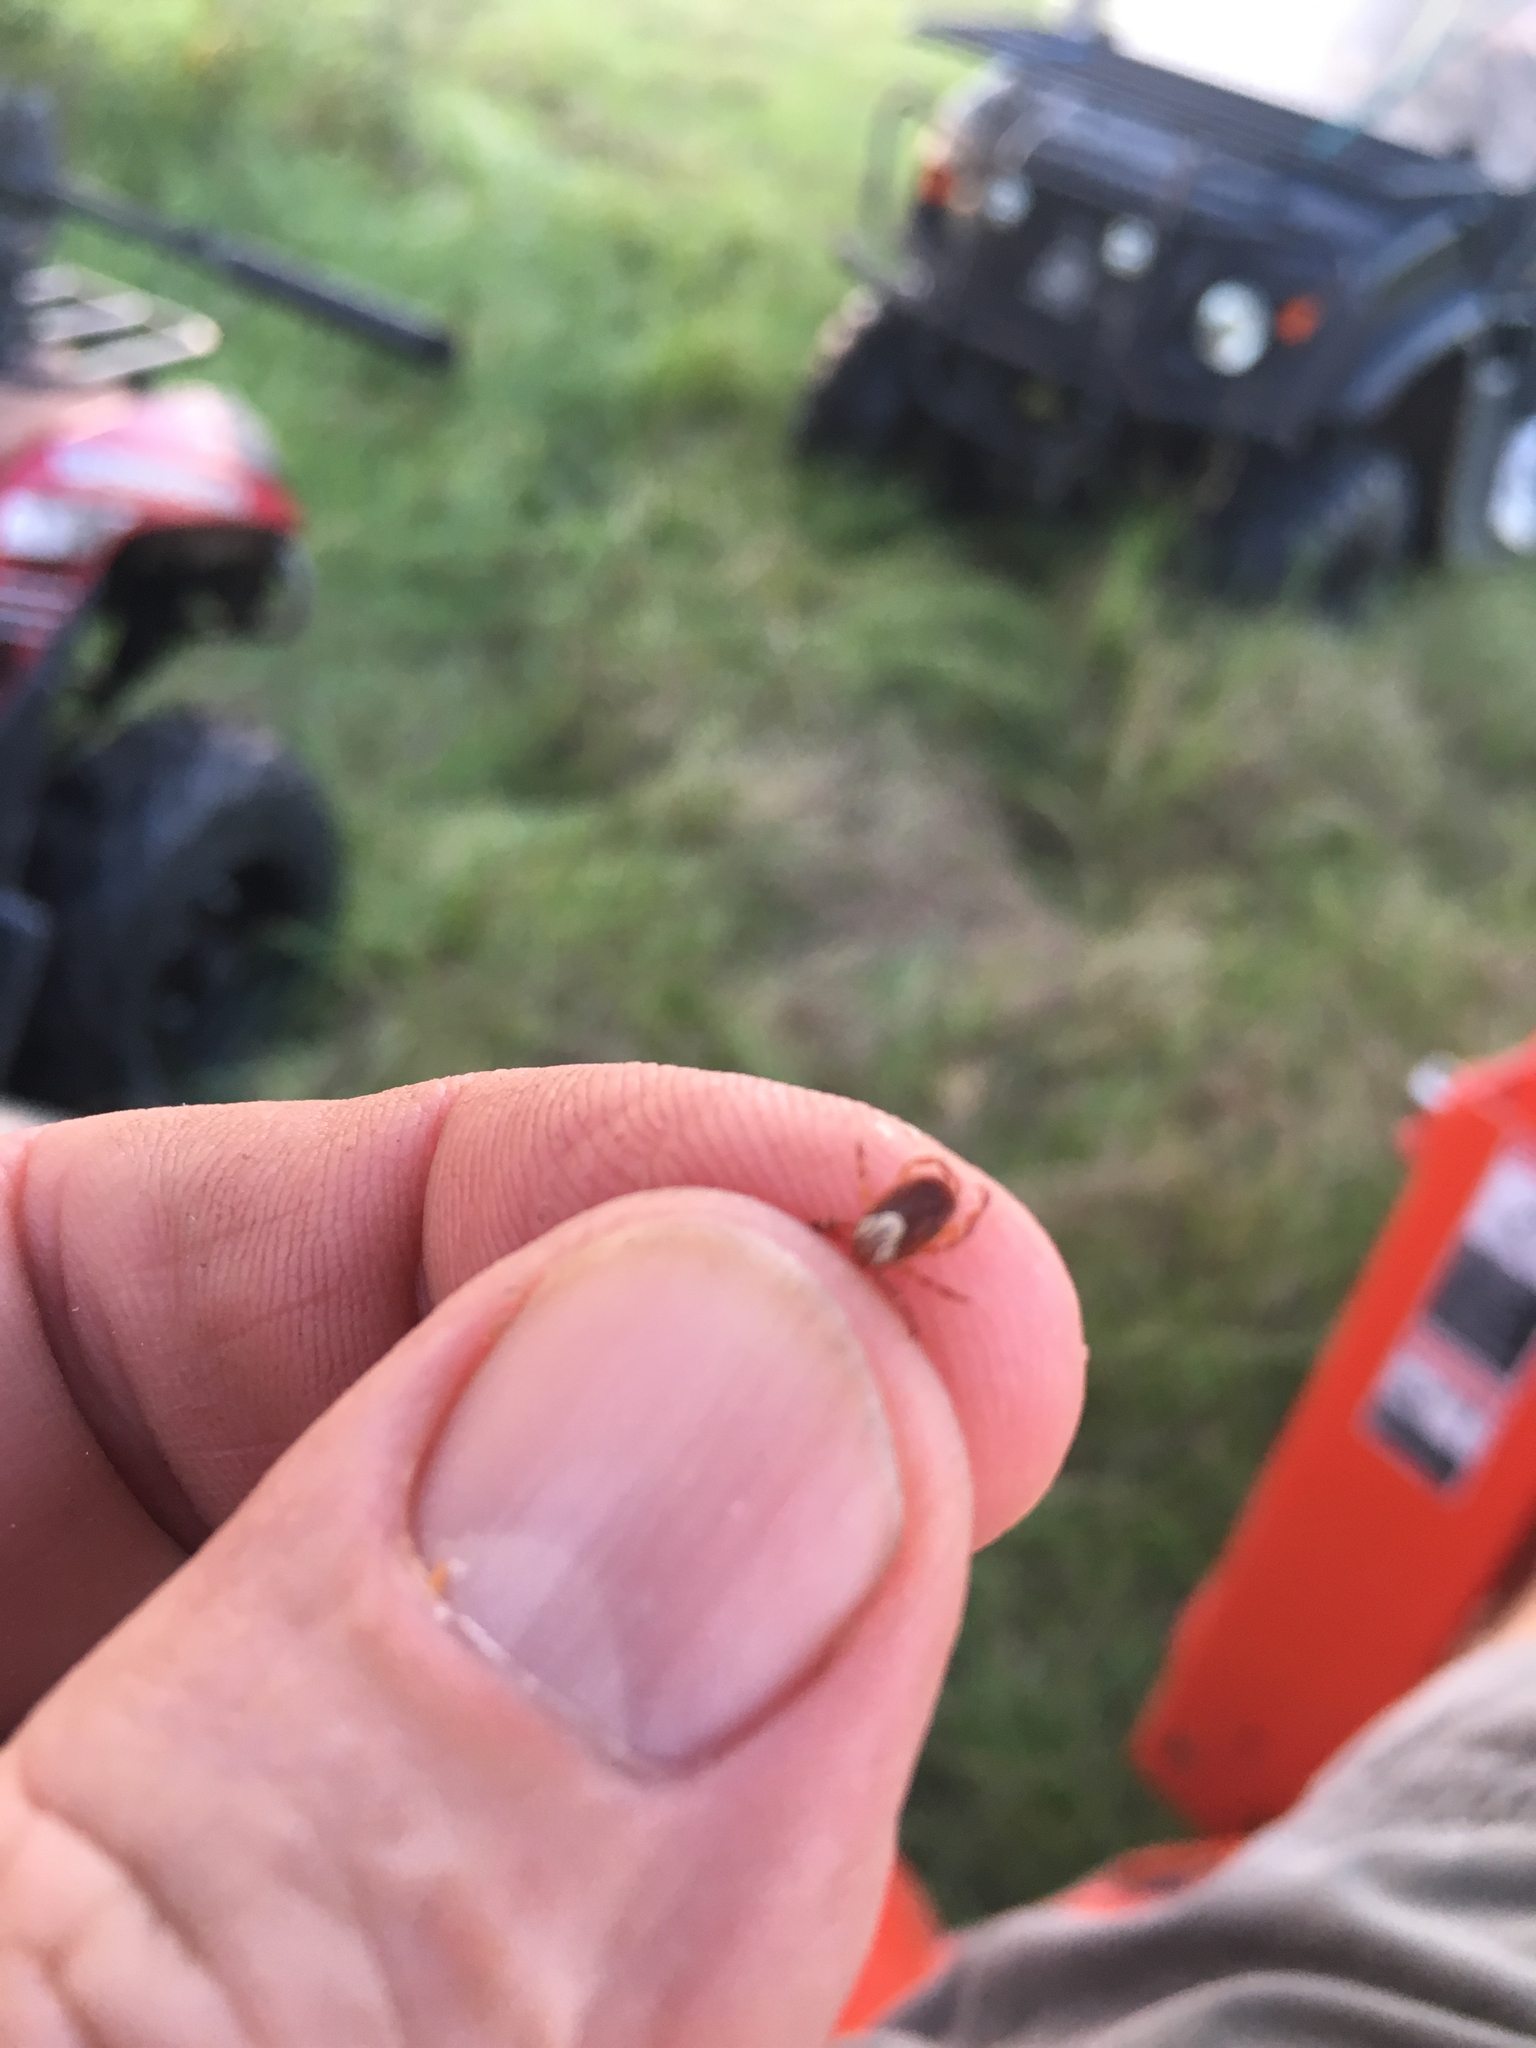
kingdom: Animalia
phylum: Arthropoda
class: Arachnida
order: Ixodida
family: Ixodidae
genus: Amblyomma
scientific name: Amblyomma maculatum
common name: Gulf coast tick
